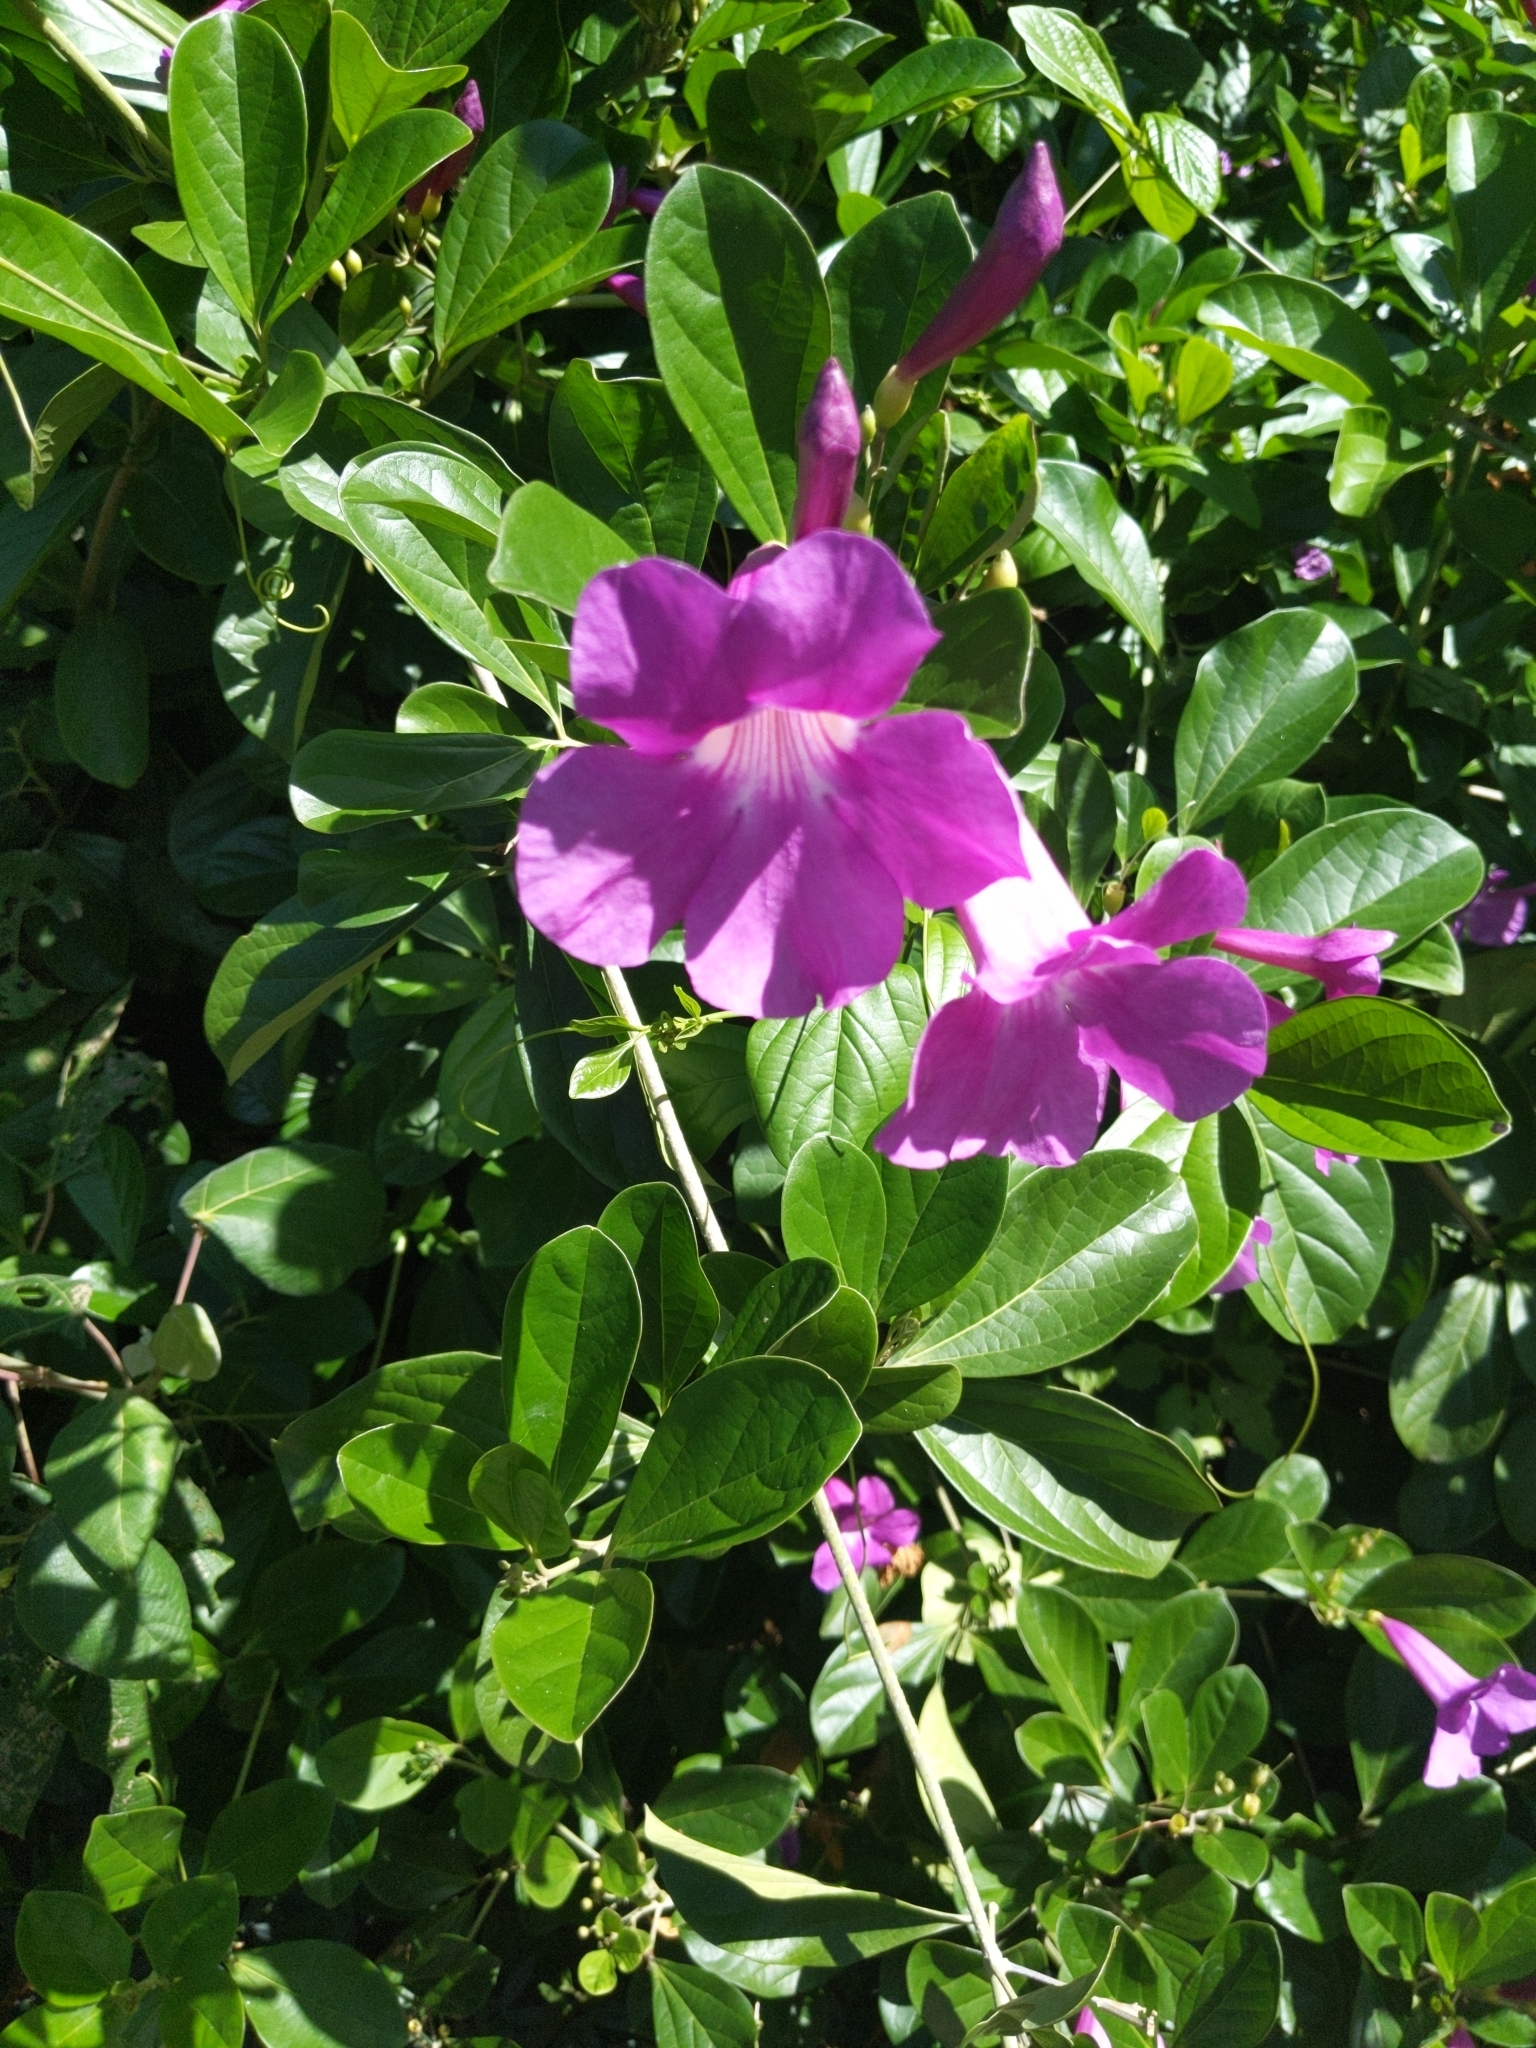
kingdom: Plantae
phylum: Tracheophyta
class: Magnoliopsida
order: Lamiales
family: Bignoniaceae
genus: Bignonia
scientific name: Bignonia magnifica
